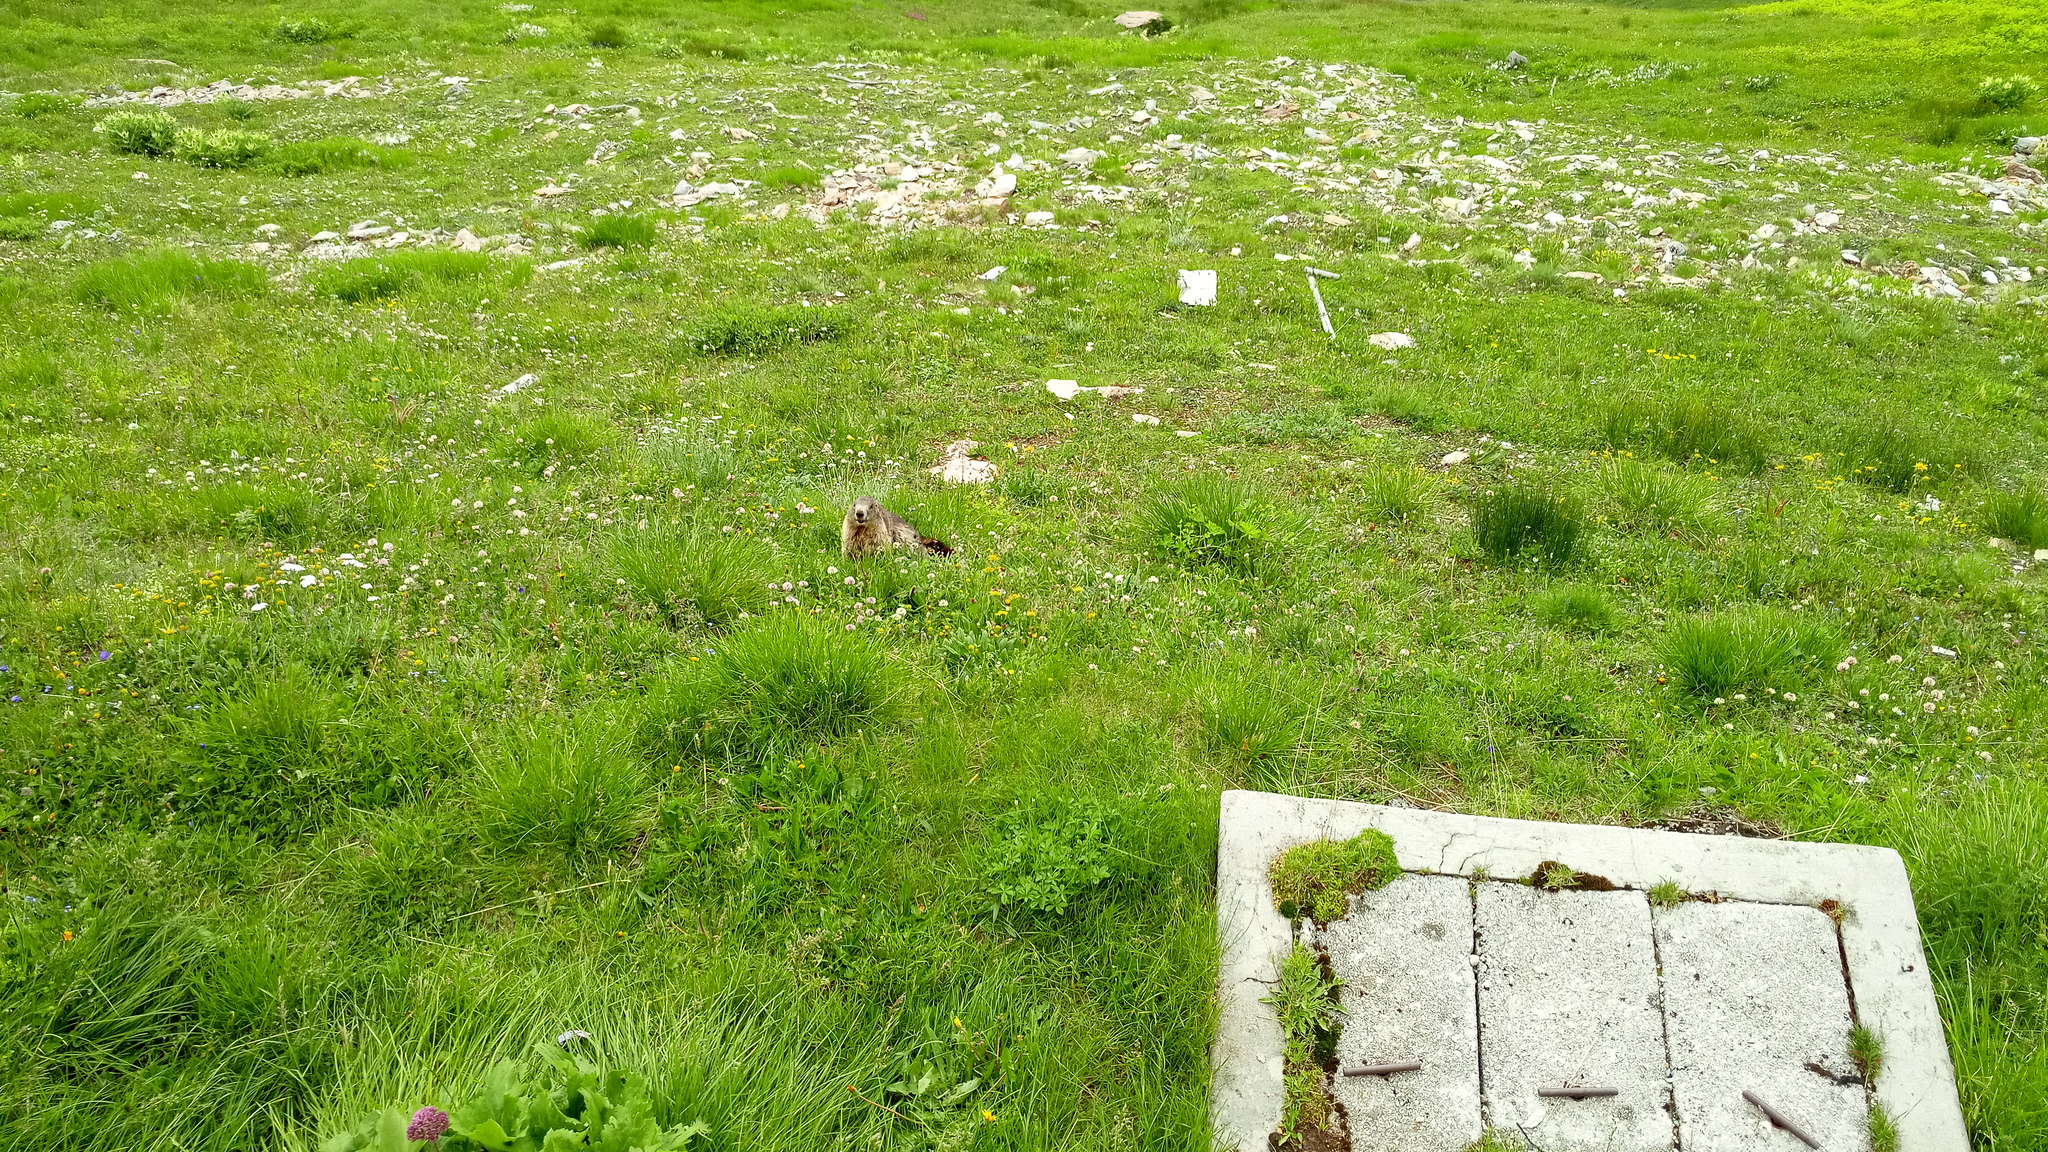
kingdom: Animalia
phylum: Chordata
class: Mammalia
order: Rodentia
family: Sciuridae
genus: Marmota
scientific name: Marmota marmota
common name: Alpine marmot
